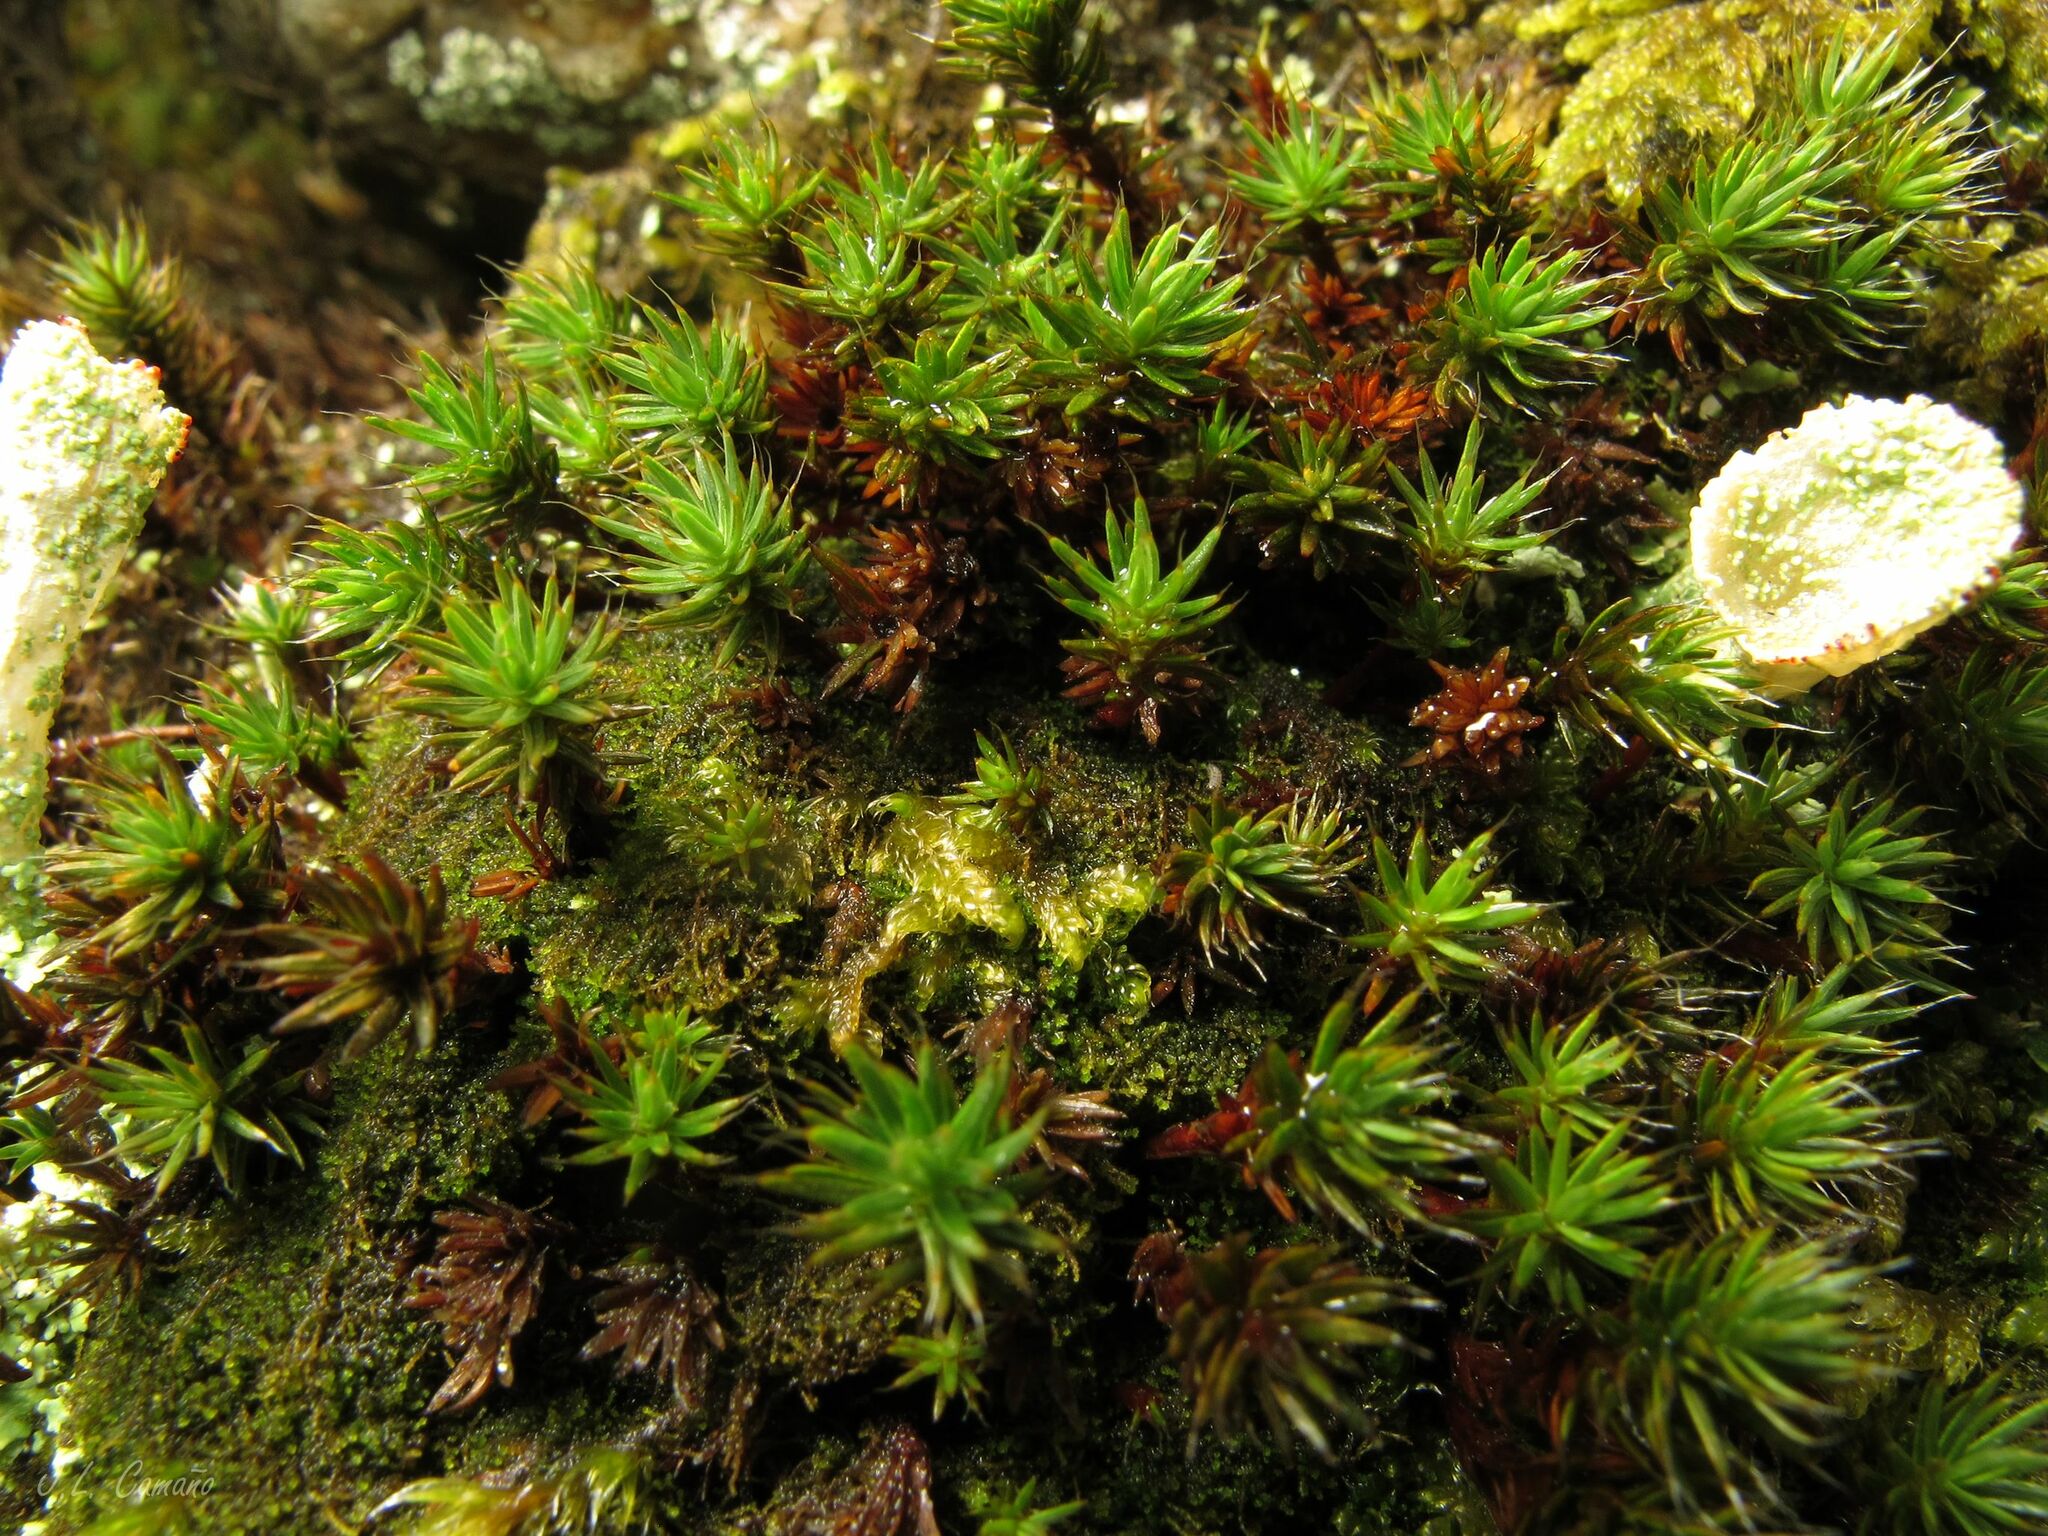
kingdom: Plantae
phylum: Bryophyta
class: Polytrichopsida
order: Polytrichales
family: Polytrichaceae
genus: Polytrichum
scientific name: Polytrichum piliferum
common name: Bristly haircap
